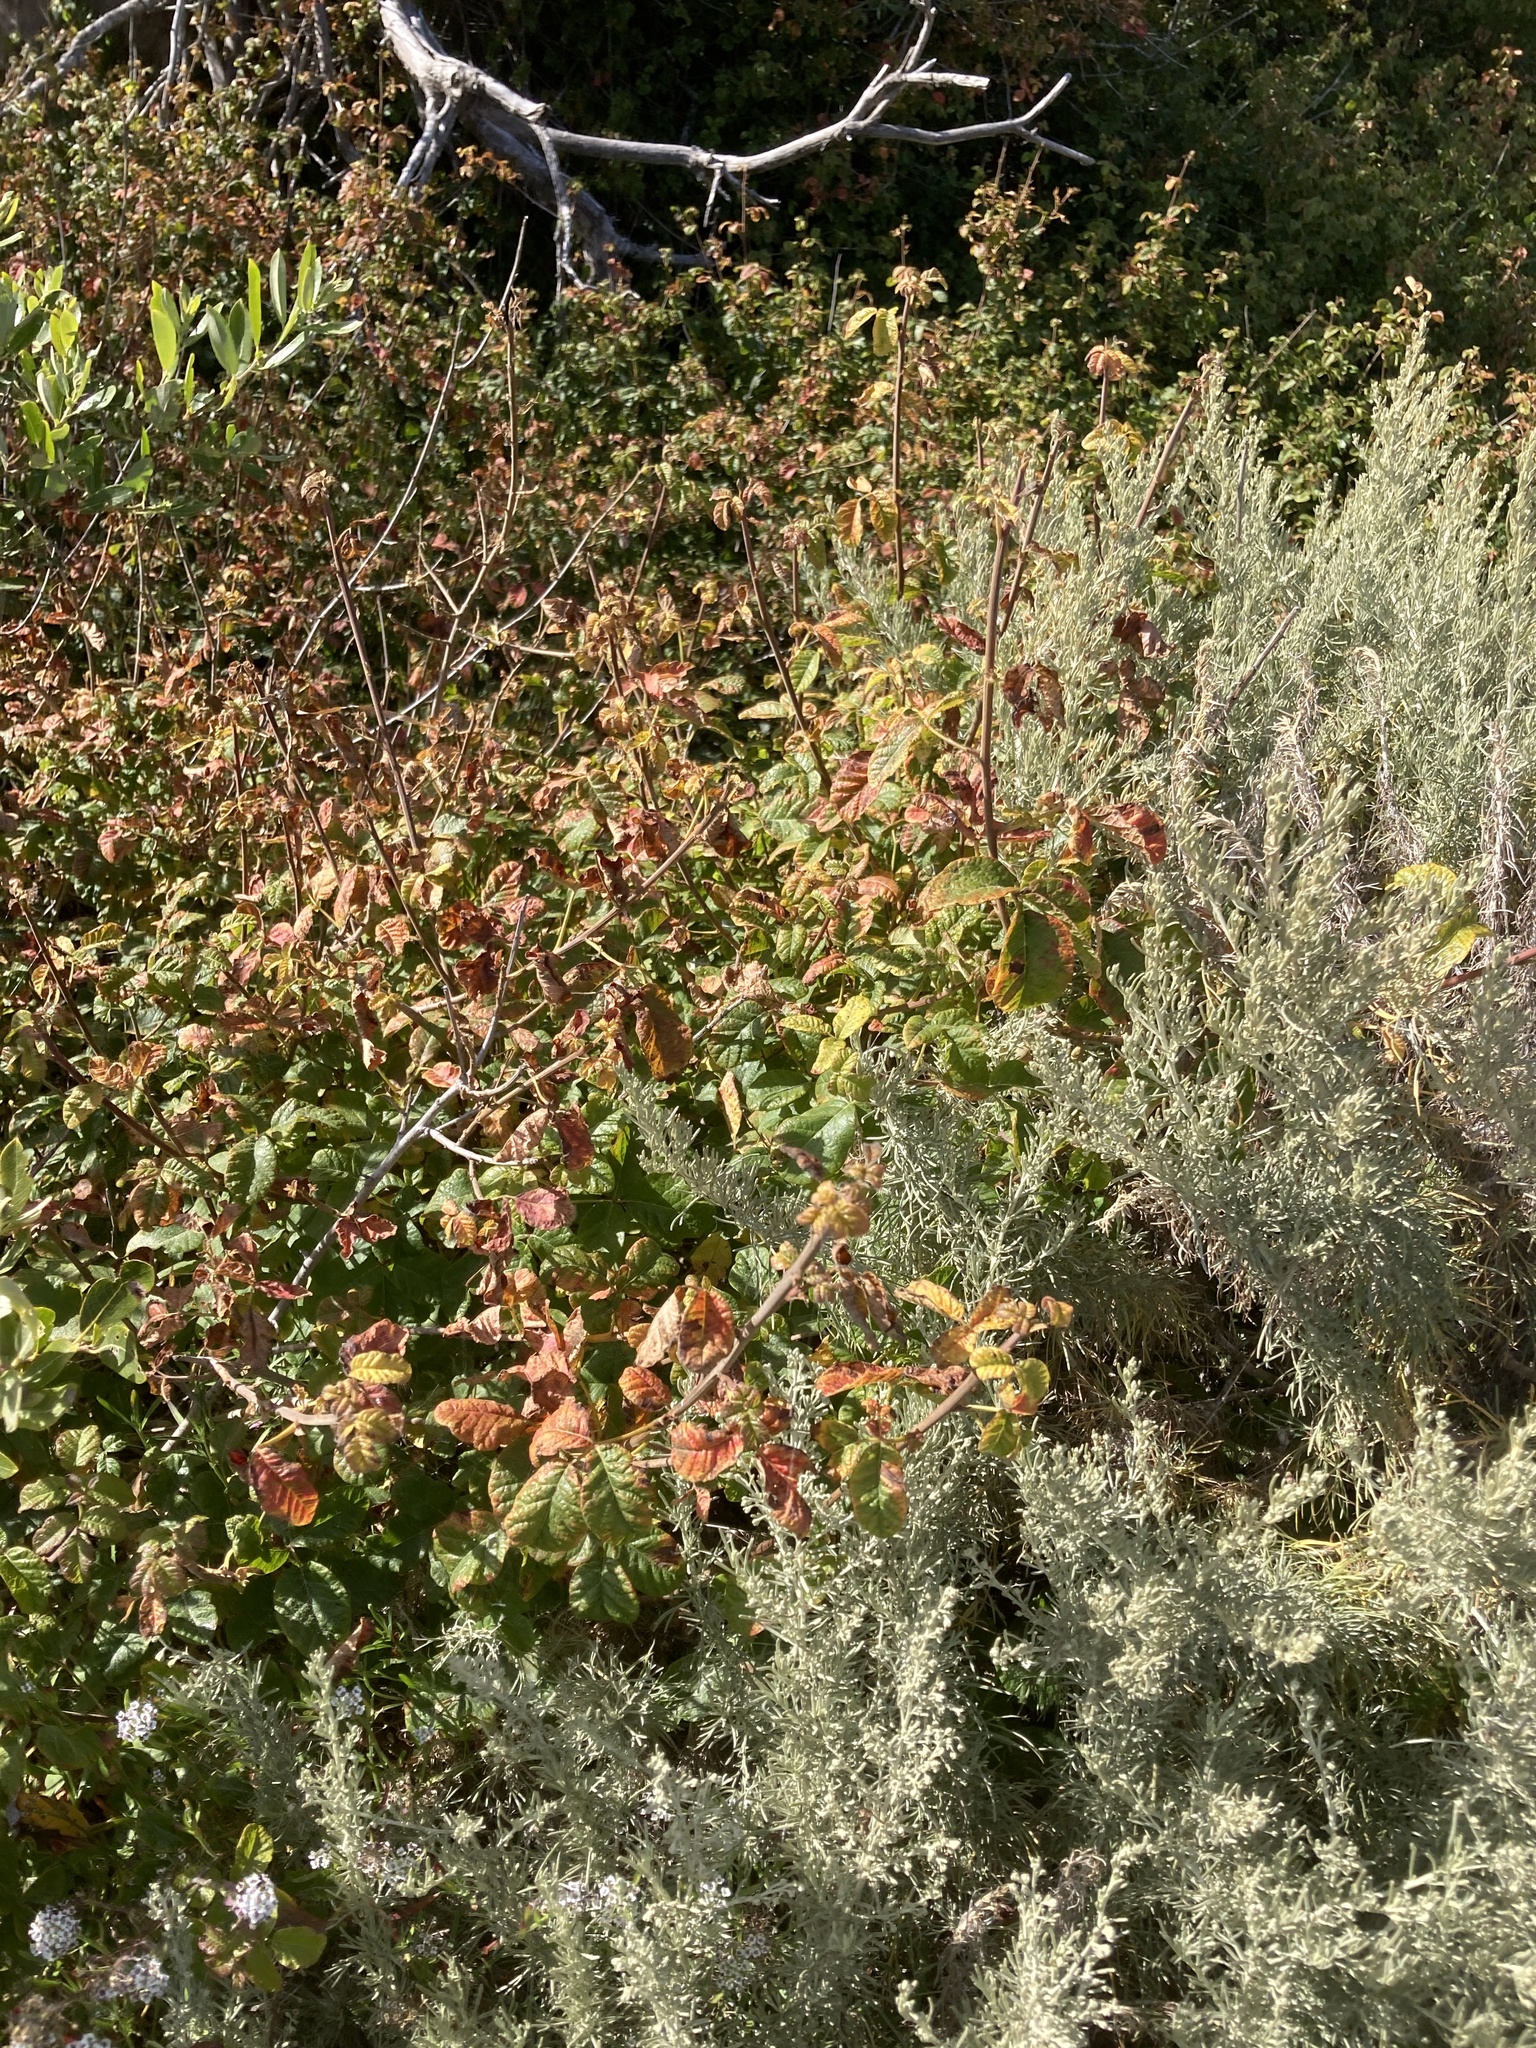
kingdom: Plantae
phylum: Tracheophyta
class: Magnoliopsida
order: Sapindales
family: Anacardiaceae
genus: Toxicodendron
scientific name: Toxicodendron diversilobum
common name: Pacific poison-oak
